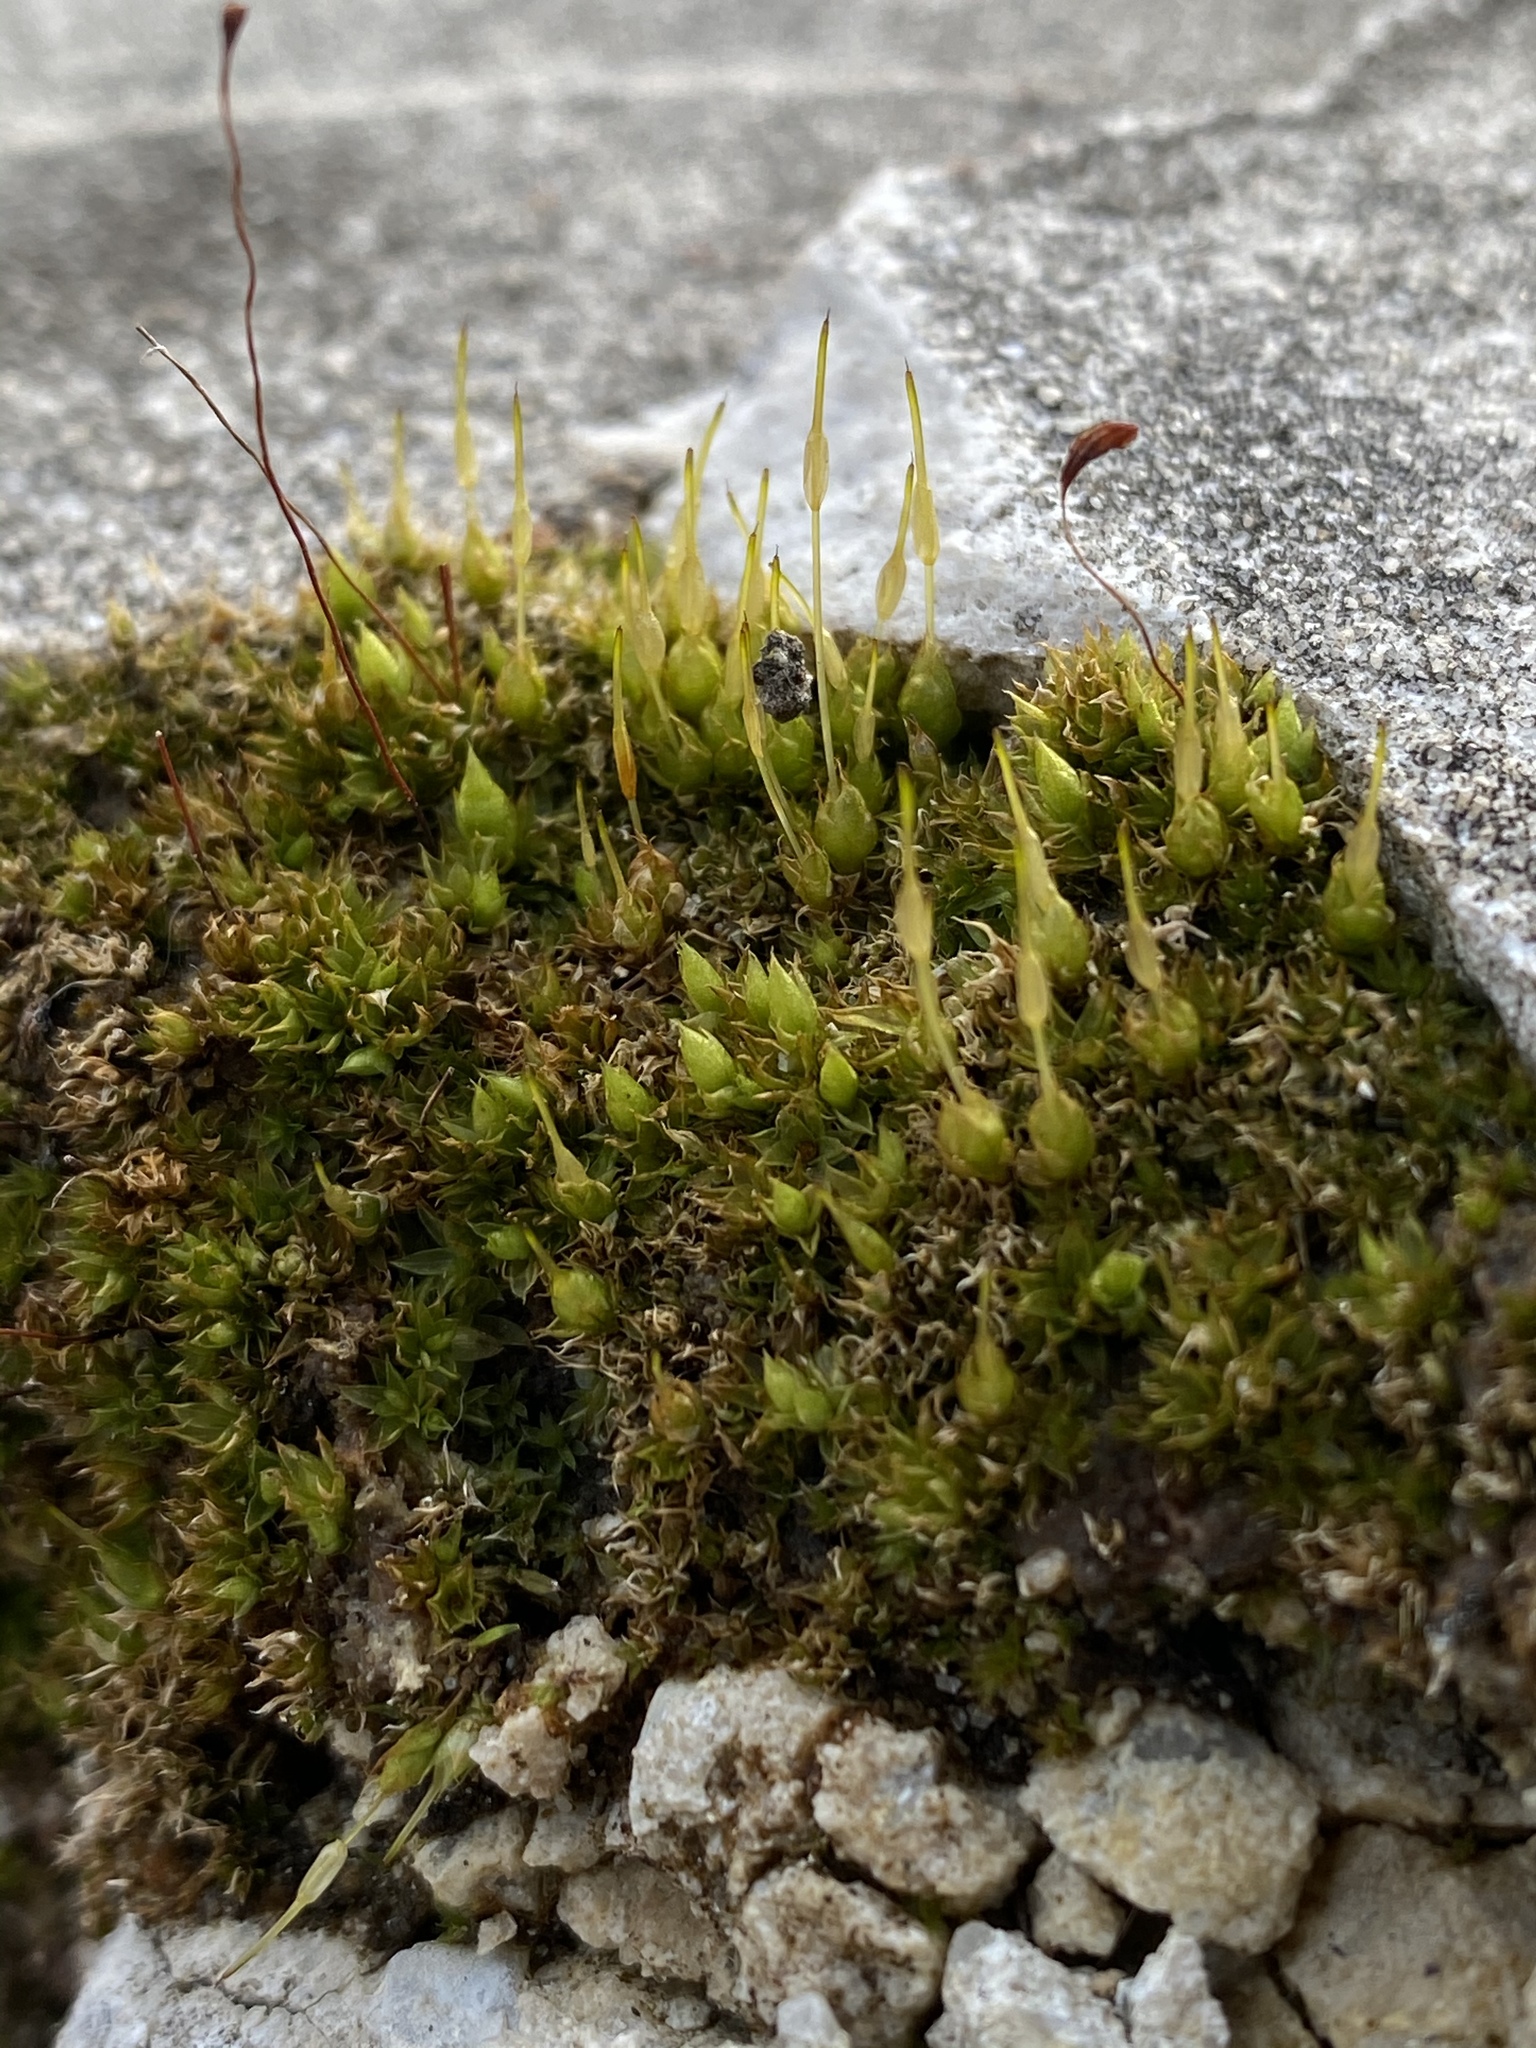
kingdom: Plantae
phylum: Bryophyta
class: Bryopsida
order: Funariales
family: Funariaceae
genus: Funaria
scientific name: Funaria hygrometrica
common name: Common cord moss
